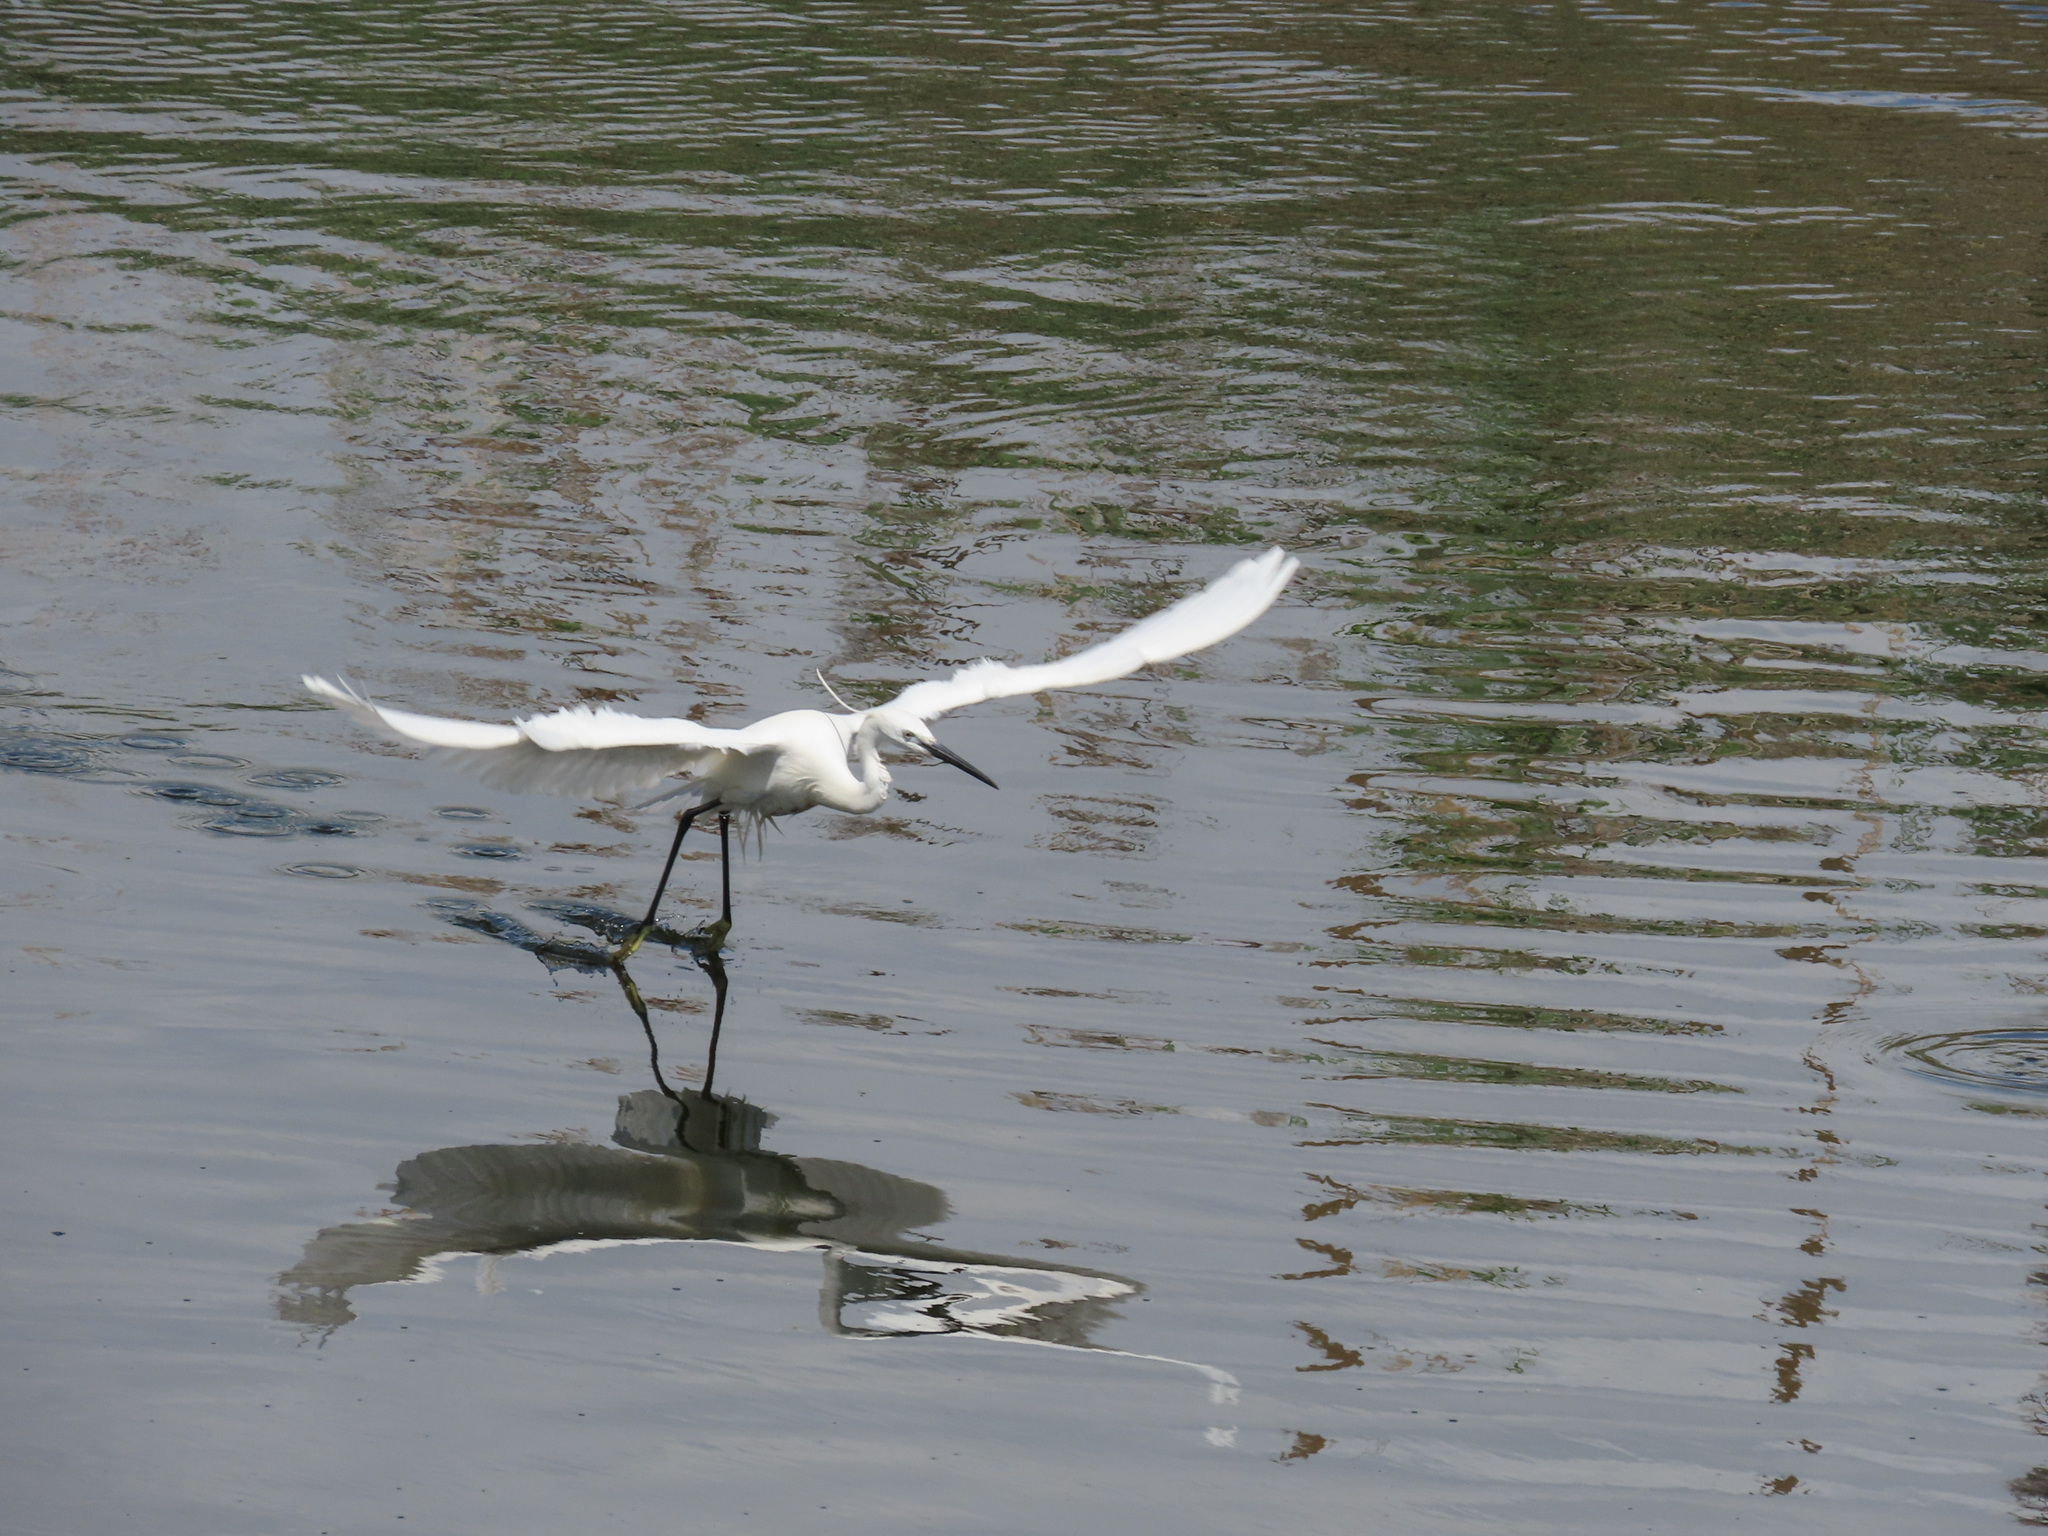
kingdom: Animalia
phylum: Chordata
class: Aves
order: Pelecaniformes
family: Ardeidae
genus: Egretta
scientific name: Egretta garzetta
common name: Little egret
